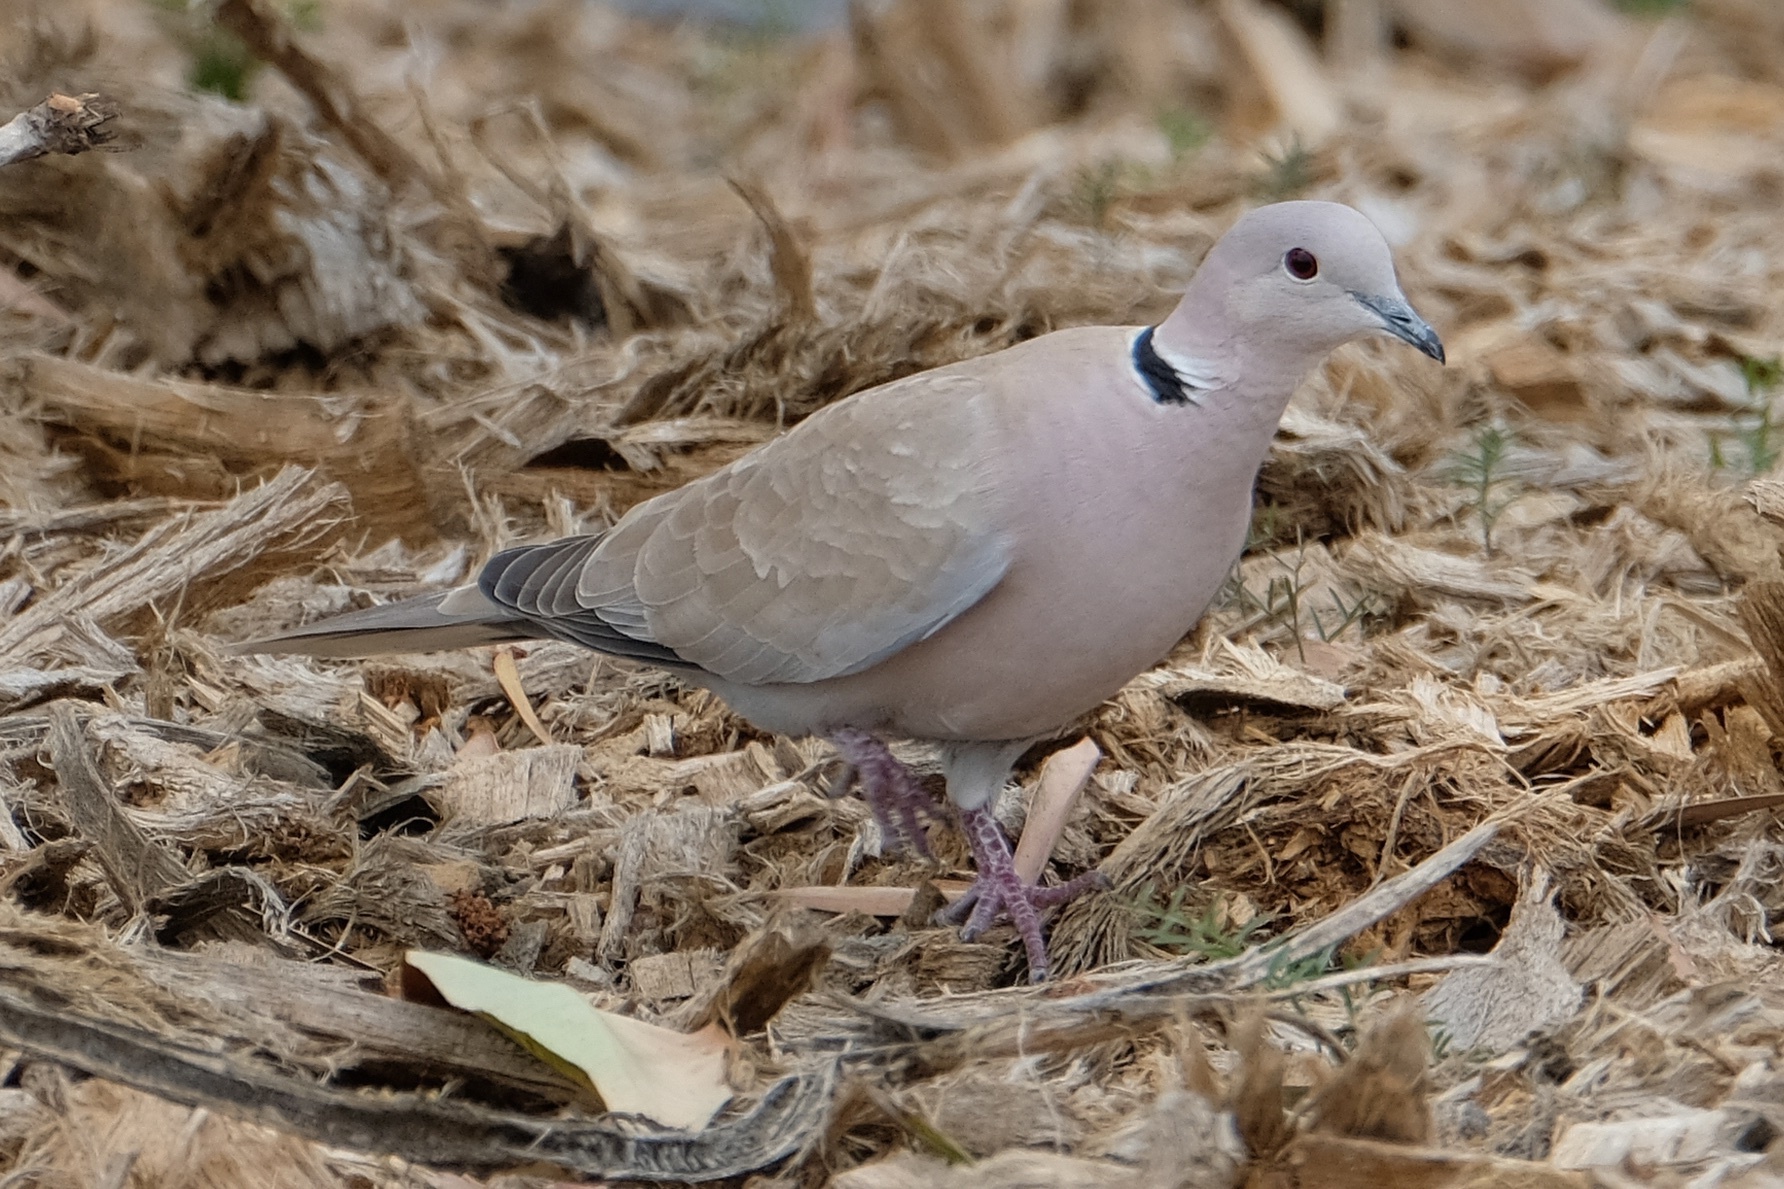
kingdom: Animalia
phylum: Chordata
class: Aves
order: Columbiformes
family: Columbidae
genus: Streptopelia
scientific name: Streptopelia decaocto
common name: Eurasian collared dove
